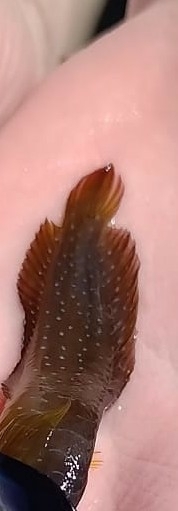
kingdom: Animalia
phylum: Chordata
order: Perciformes
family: Blenniidae
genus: Salaria
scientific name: Salaria pavo
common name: Peacock blenny
